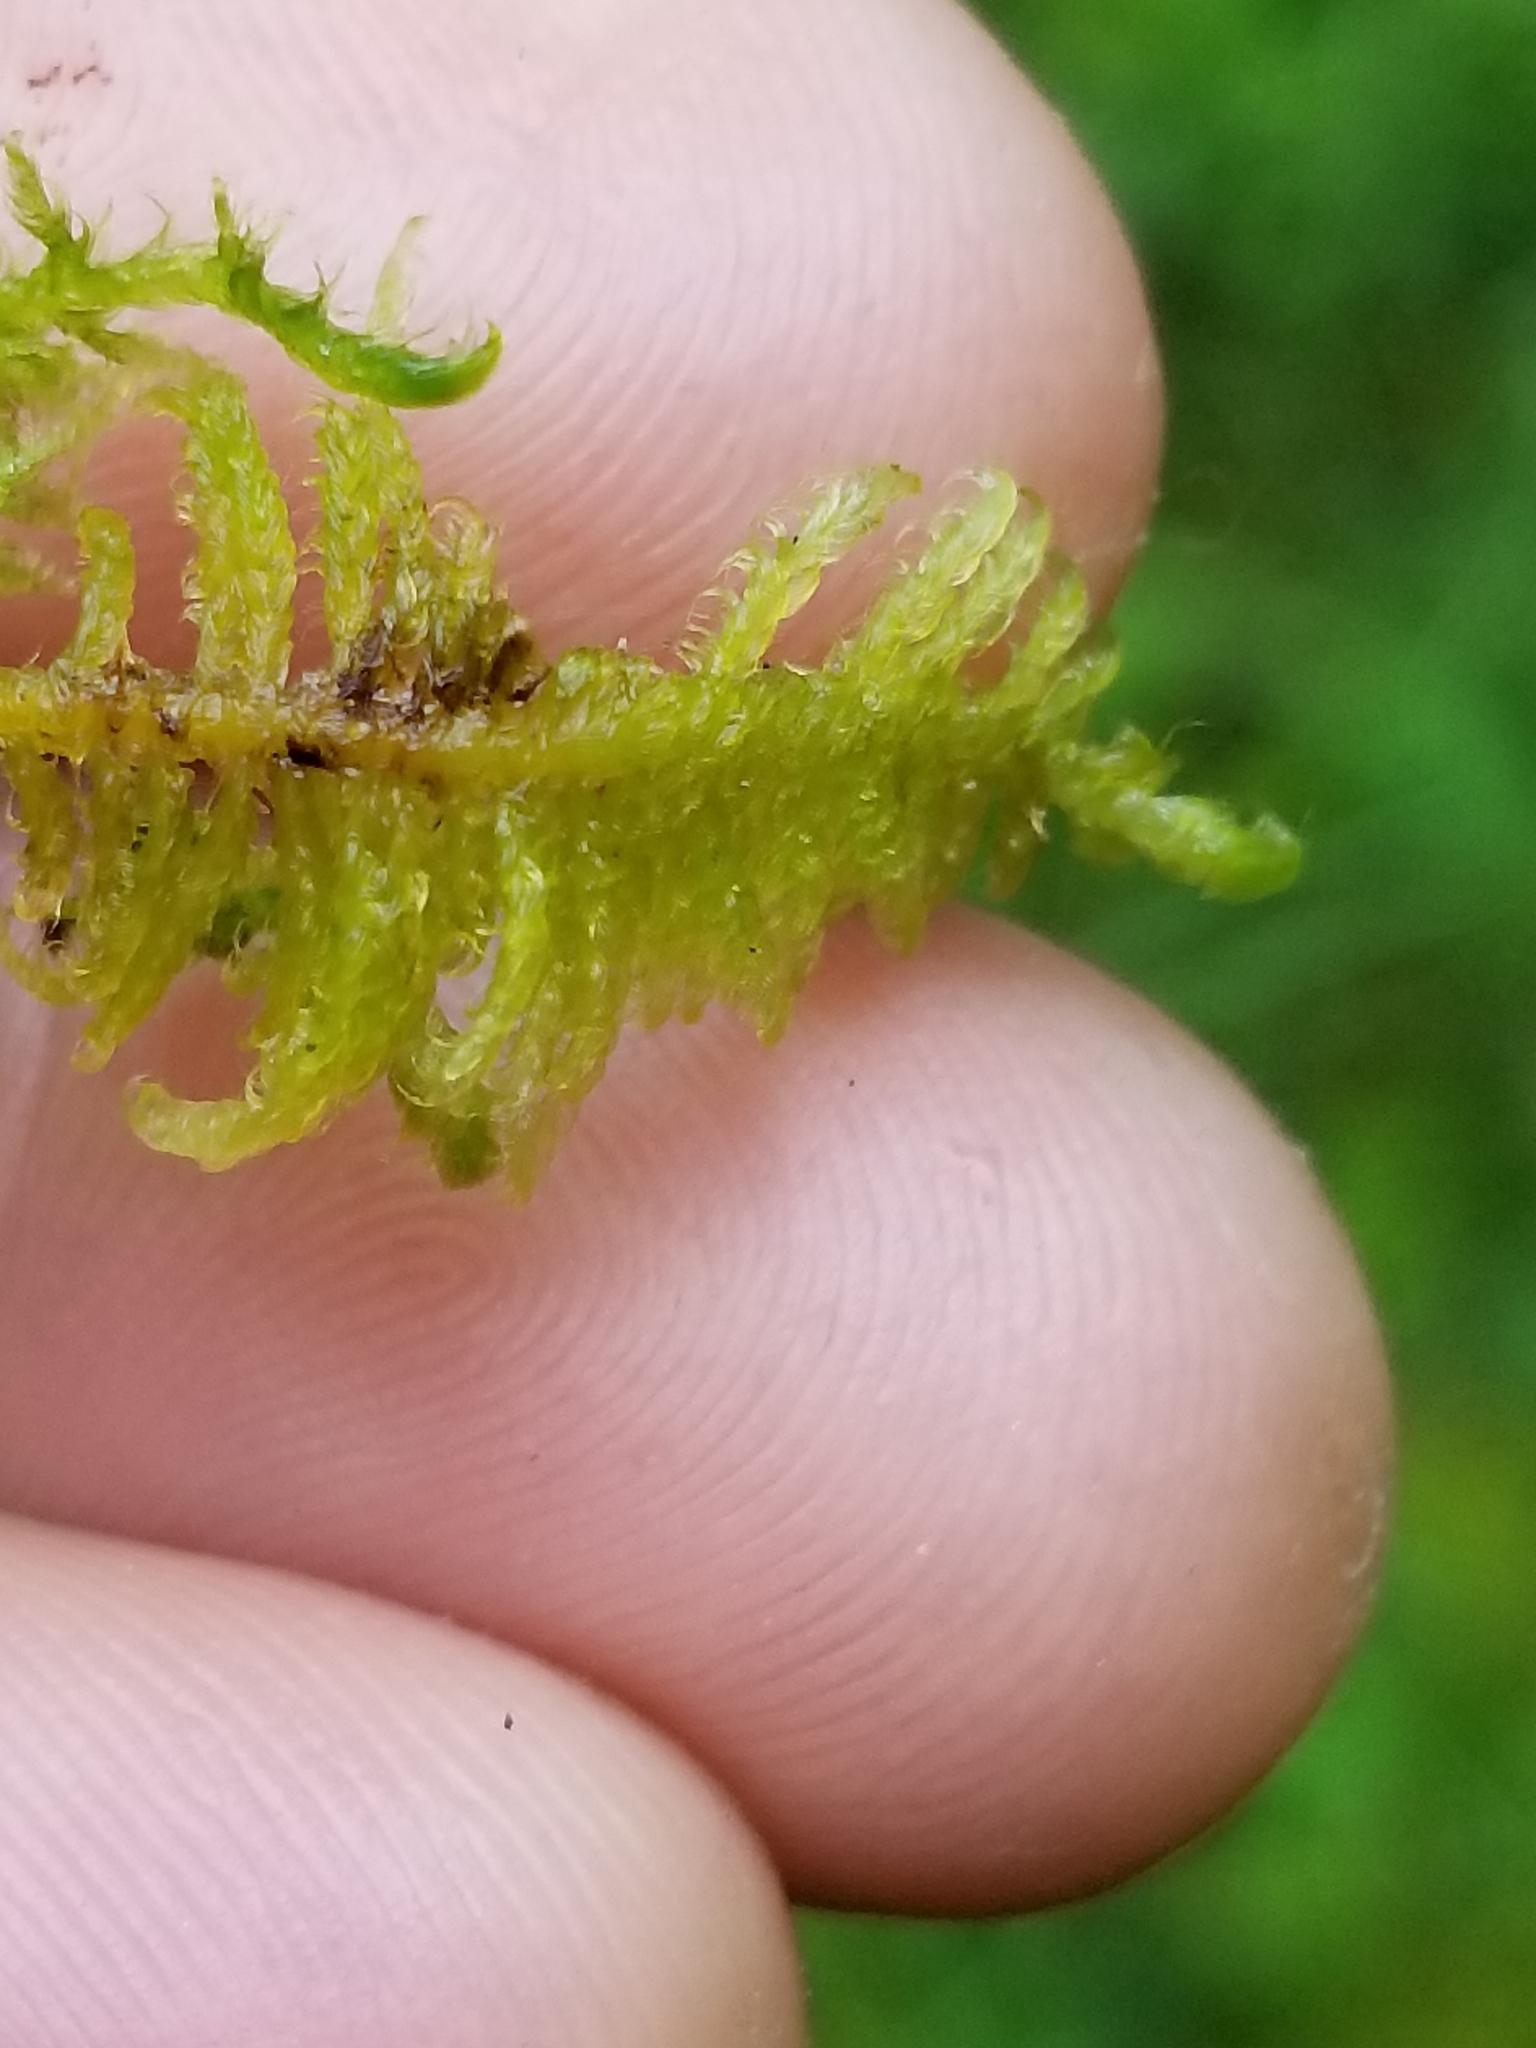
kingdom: Plantae
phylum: Bryophyta
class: Bryopsida
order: Hypnales
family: Callicladiaceae
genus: Callicladium
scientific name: Callicladium imponens
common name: Brocade moss
